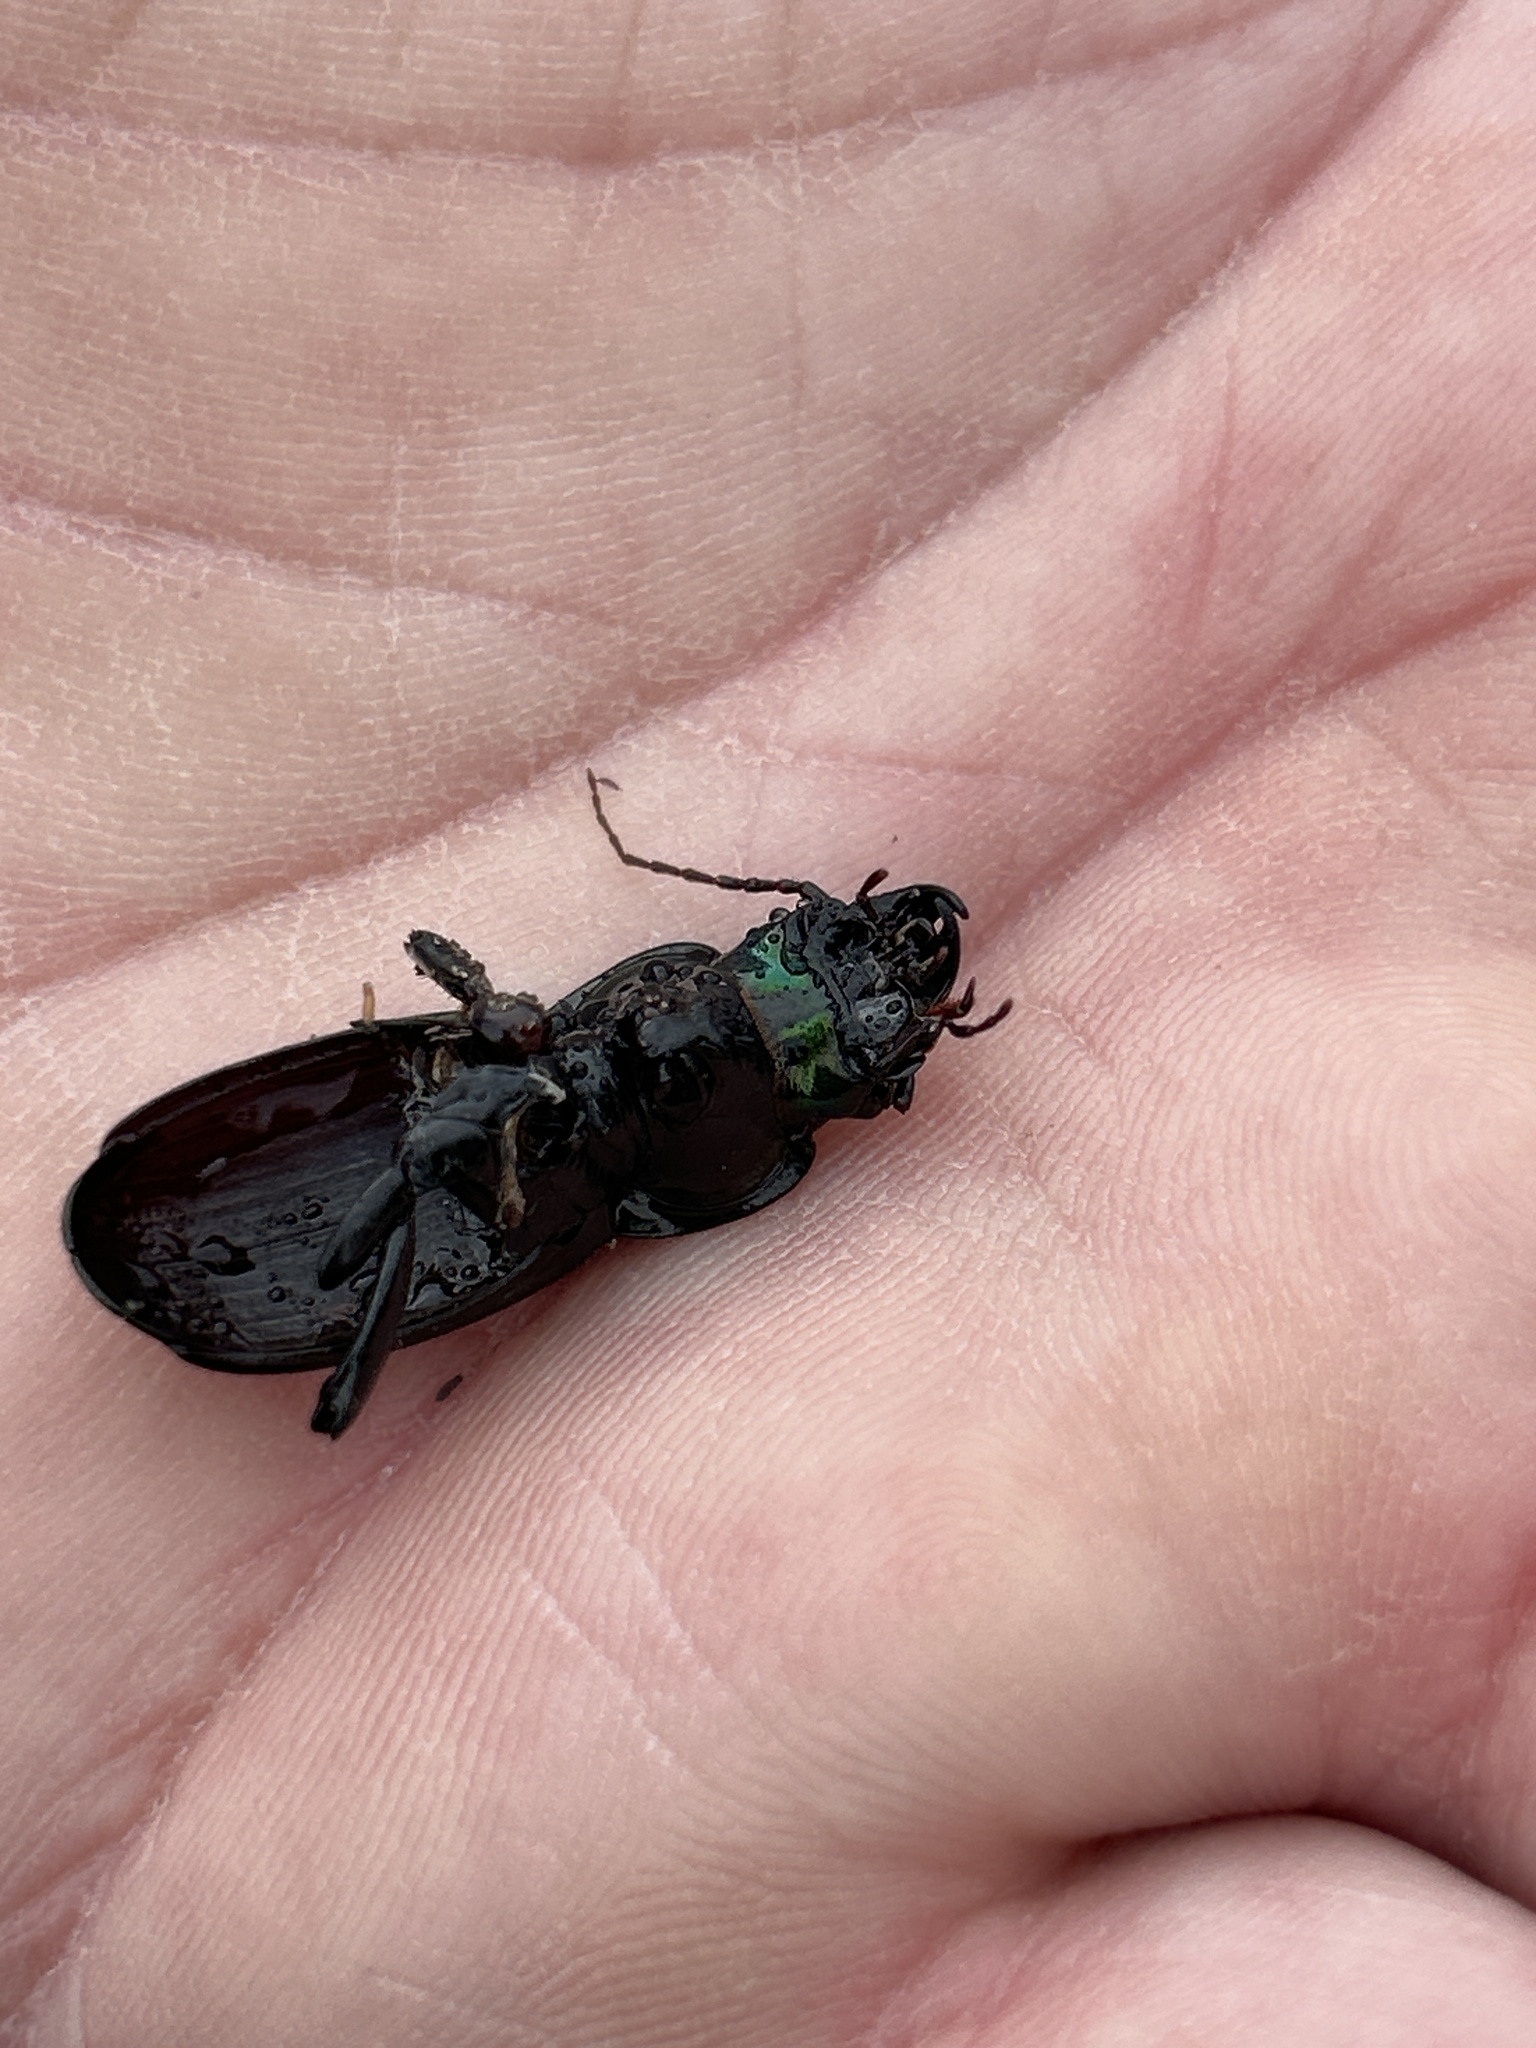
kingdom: Animalia
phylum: Arthropoda
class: Insecta
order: Coleoptera
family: Carabidae
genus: Megadromus
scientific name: Megadromus antarcticus
